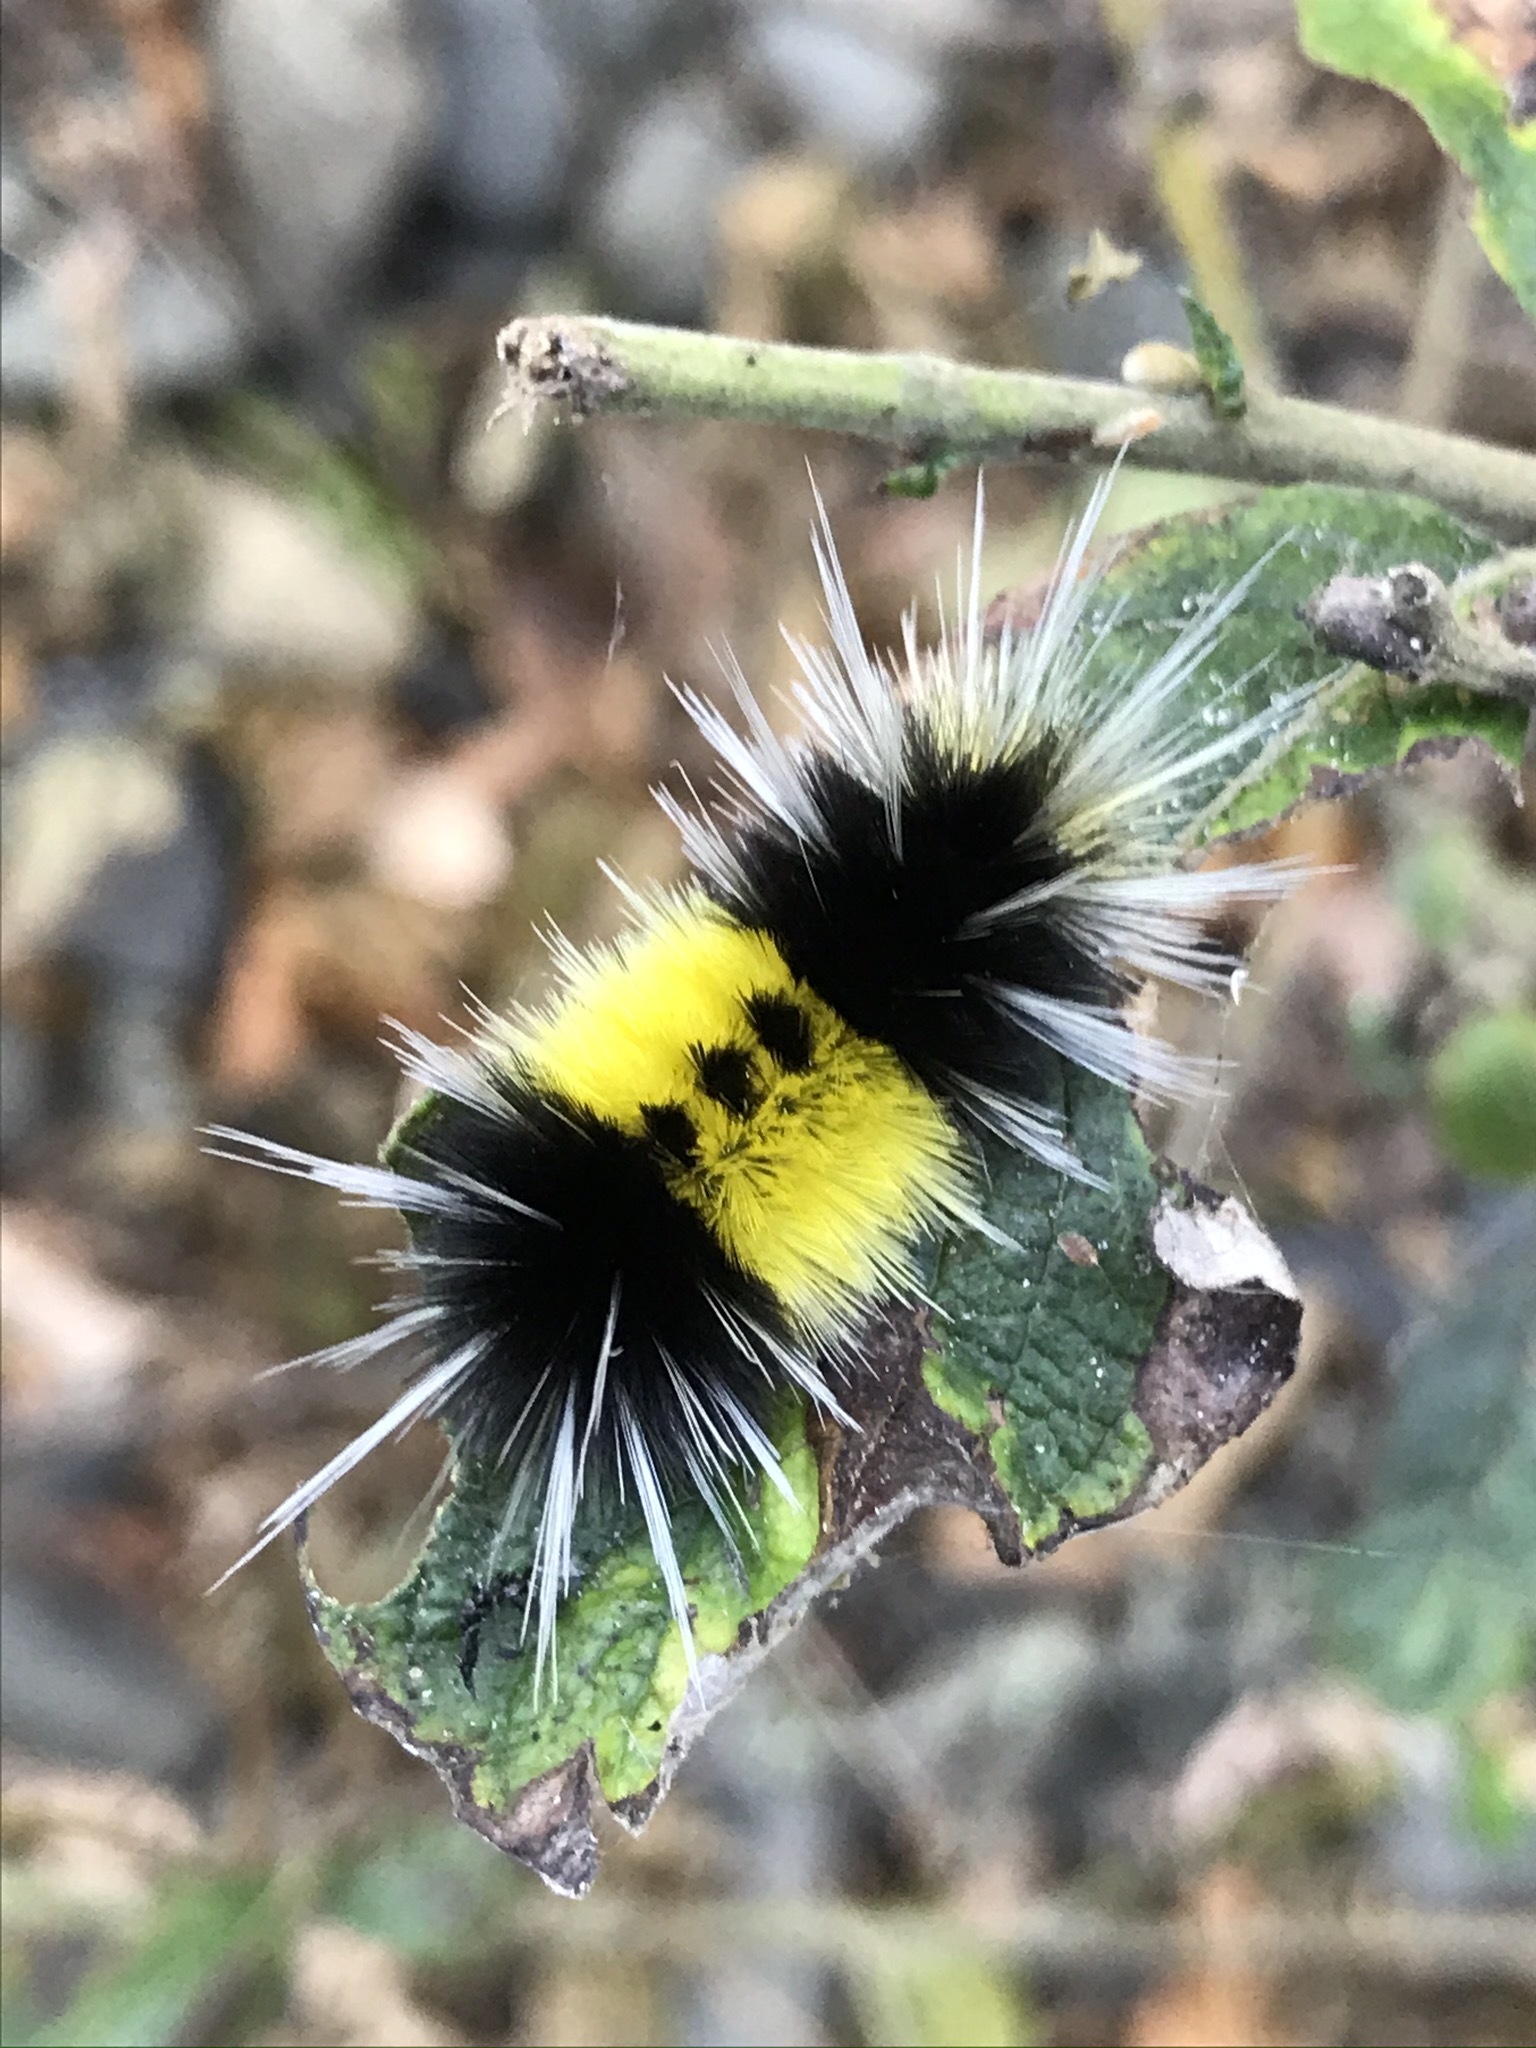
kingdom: Animalia
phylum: Arthropoda
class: Insecta
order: Lepidoptera
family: Erebidae
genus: Lophocampa
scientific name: Lophocampa maculata
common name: Spotted tussock moth
